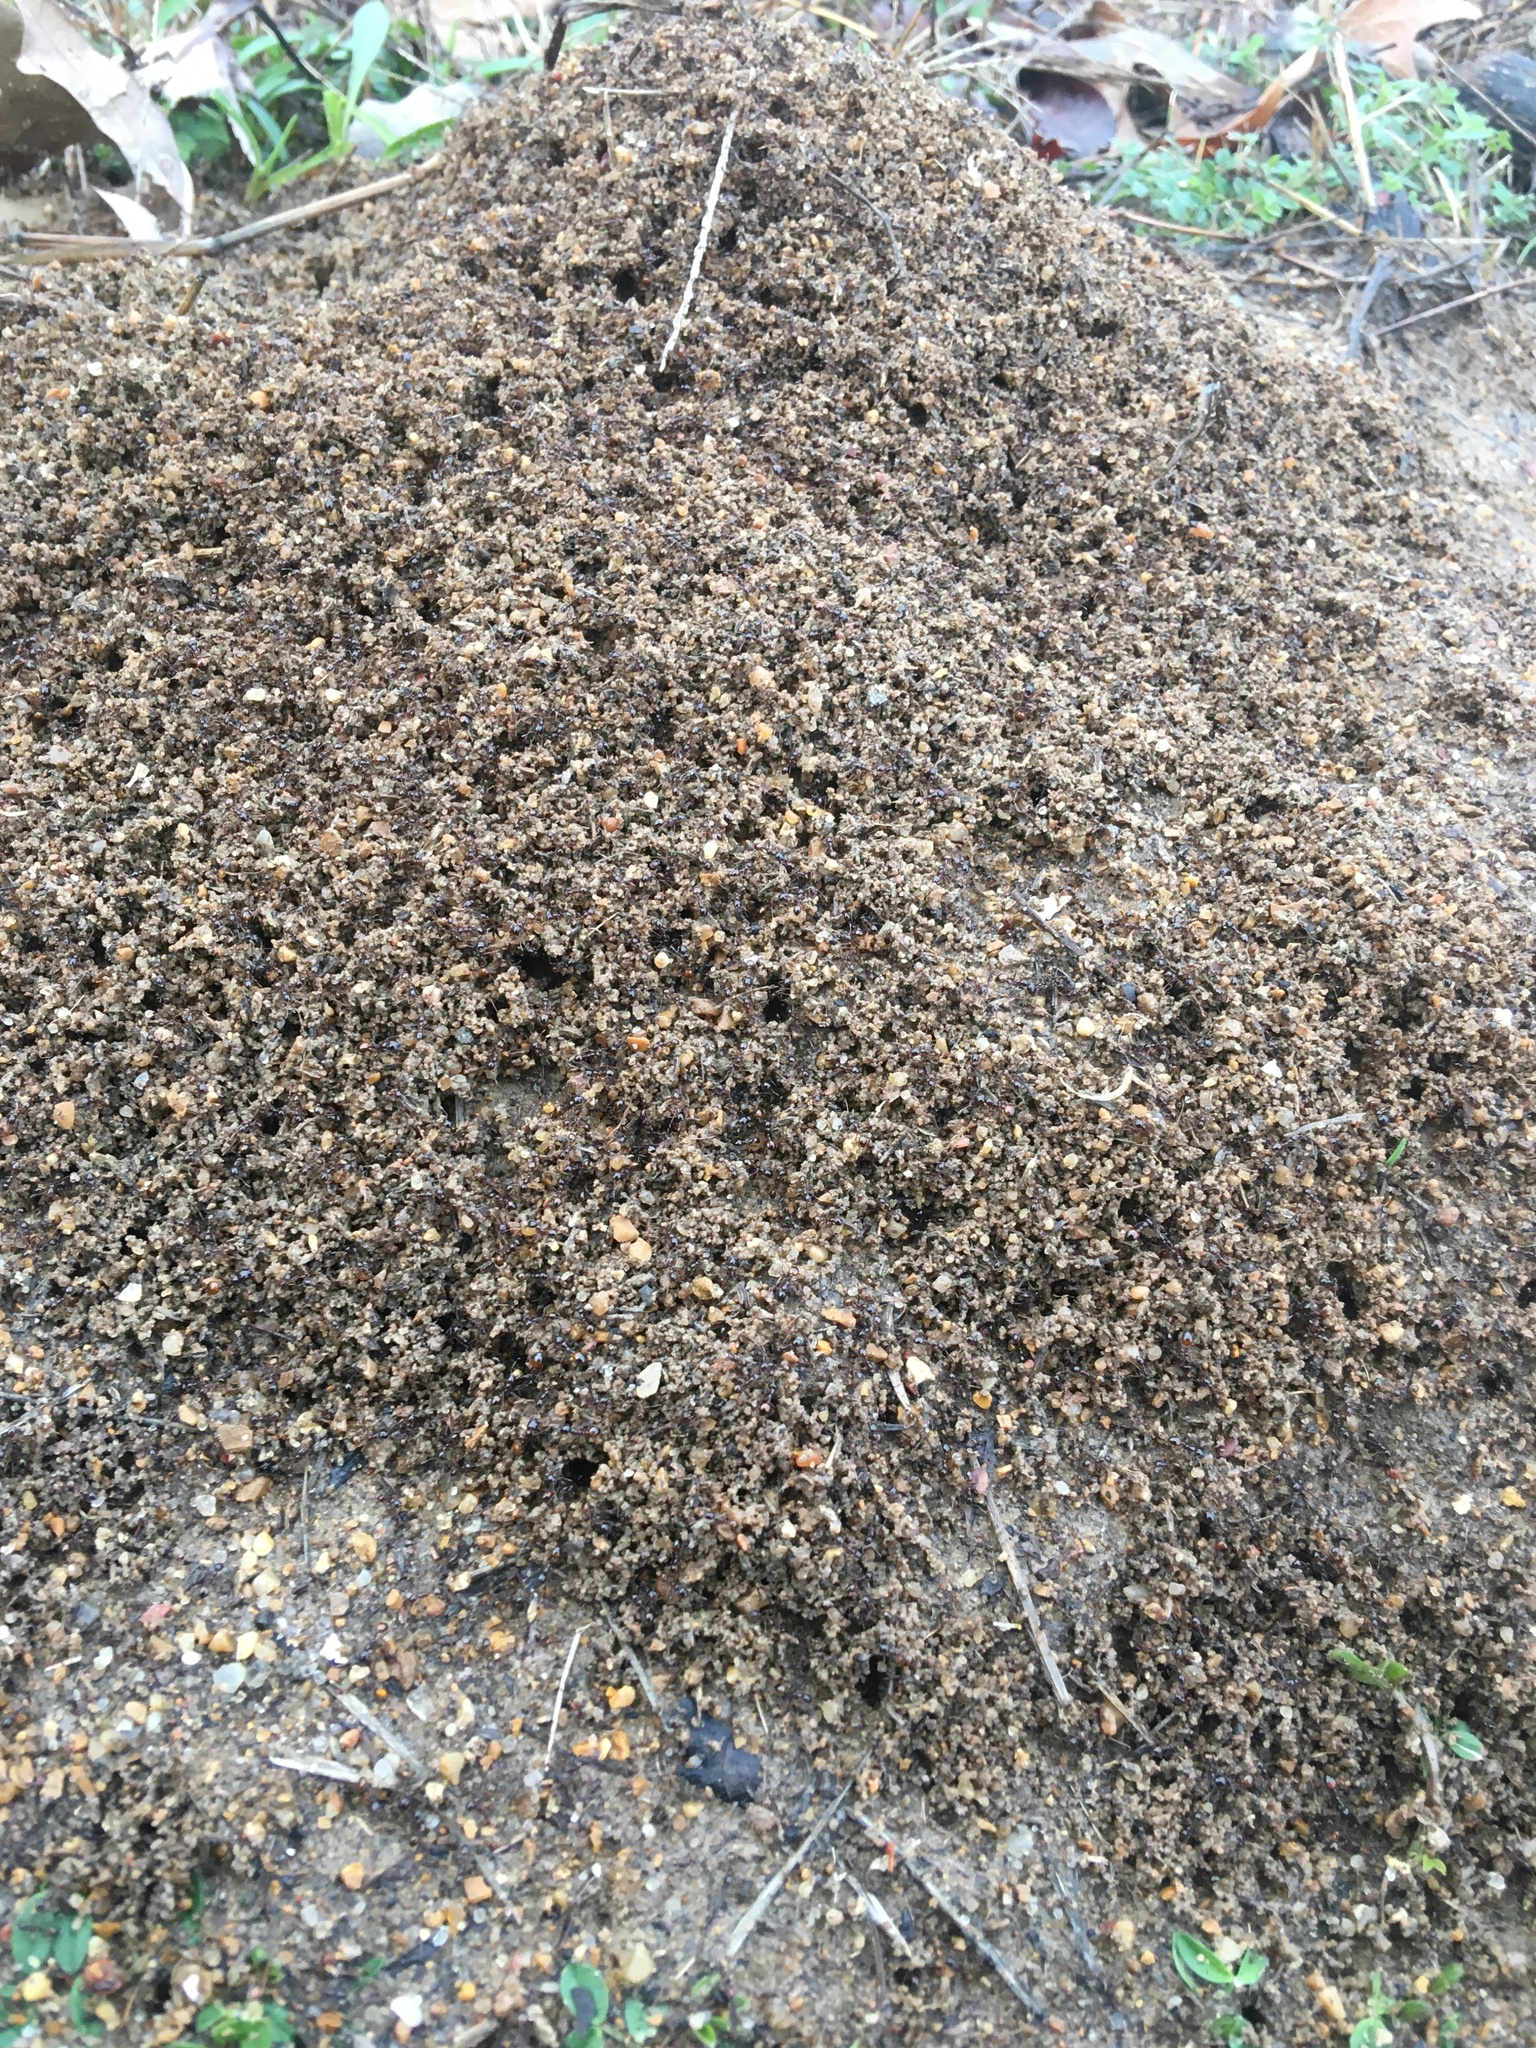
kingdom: Animalia
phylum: Arthropoda
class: Insecta
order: Hymenoptera
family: Formicidae
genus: Solenopsis
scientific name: Solenopsis richteri
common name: Black imported fire ant
